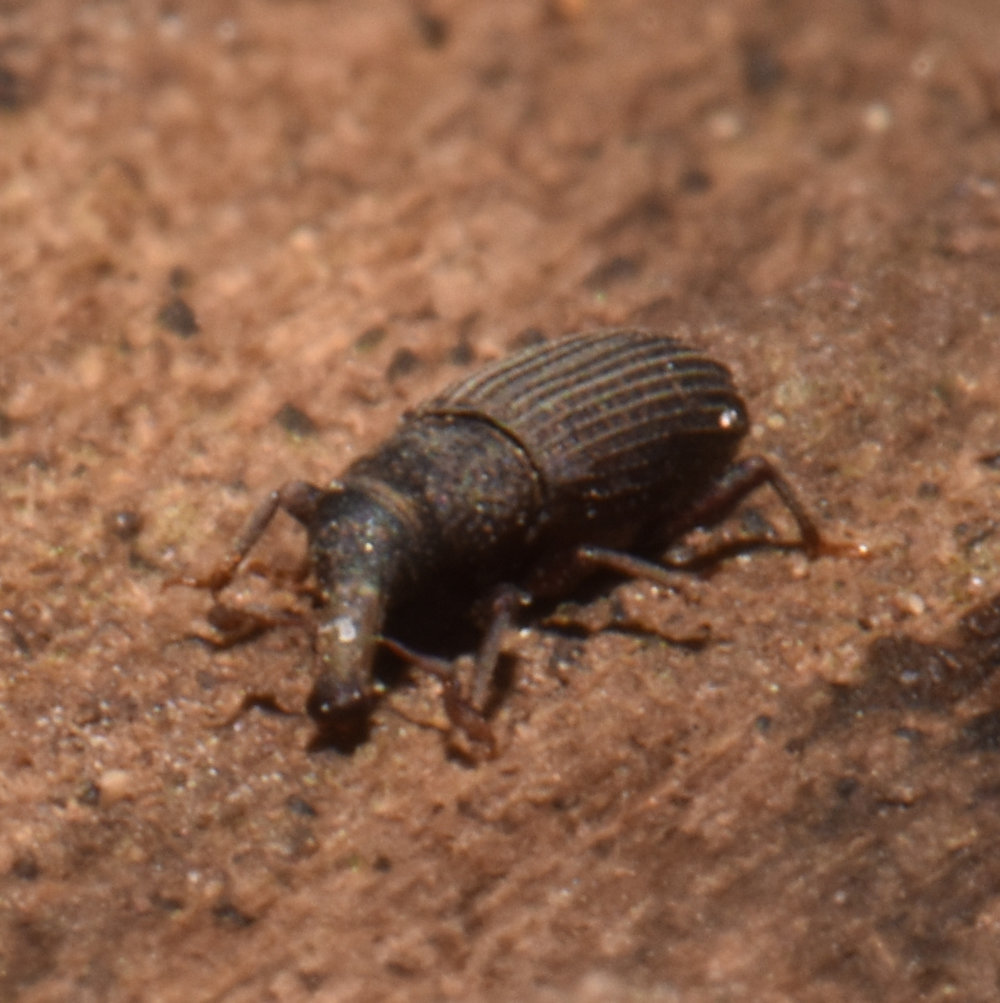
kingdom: Animalia
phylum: Arthropoda
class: Insecta
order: Coleoptera
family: Dryophthoridae
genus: Dryophthorus
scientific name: Dryophthorus americanus
